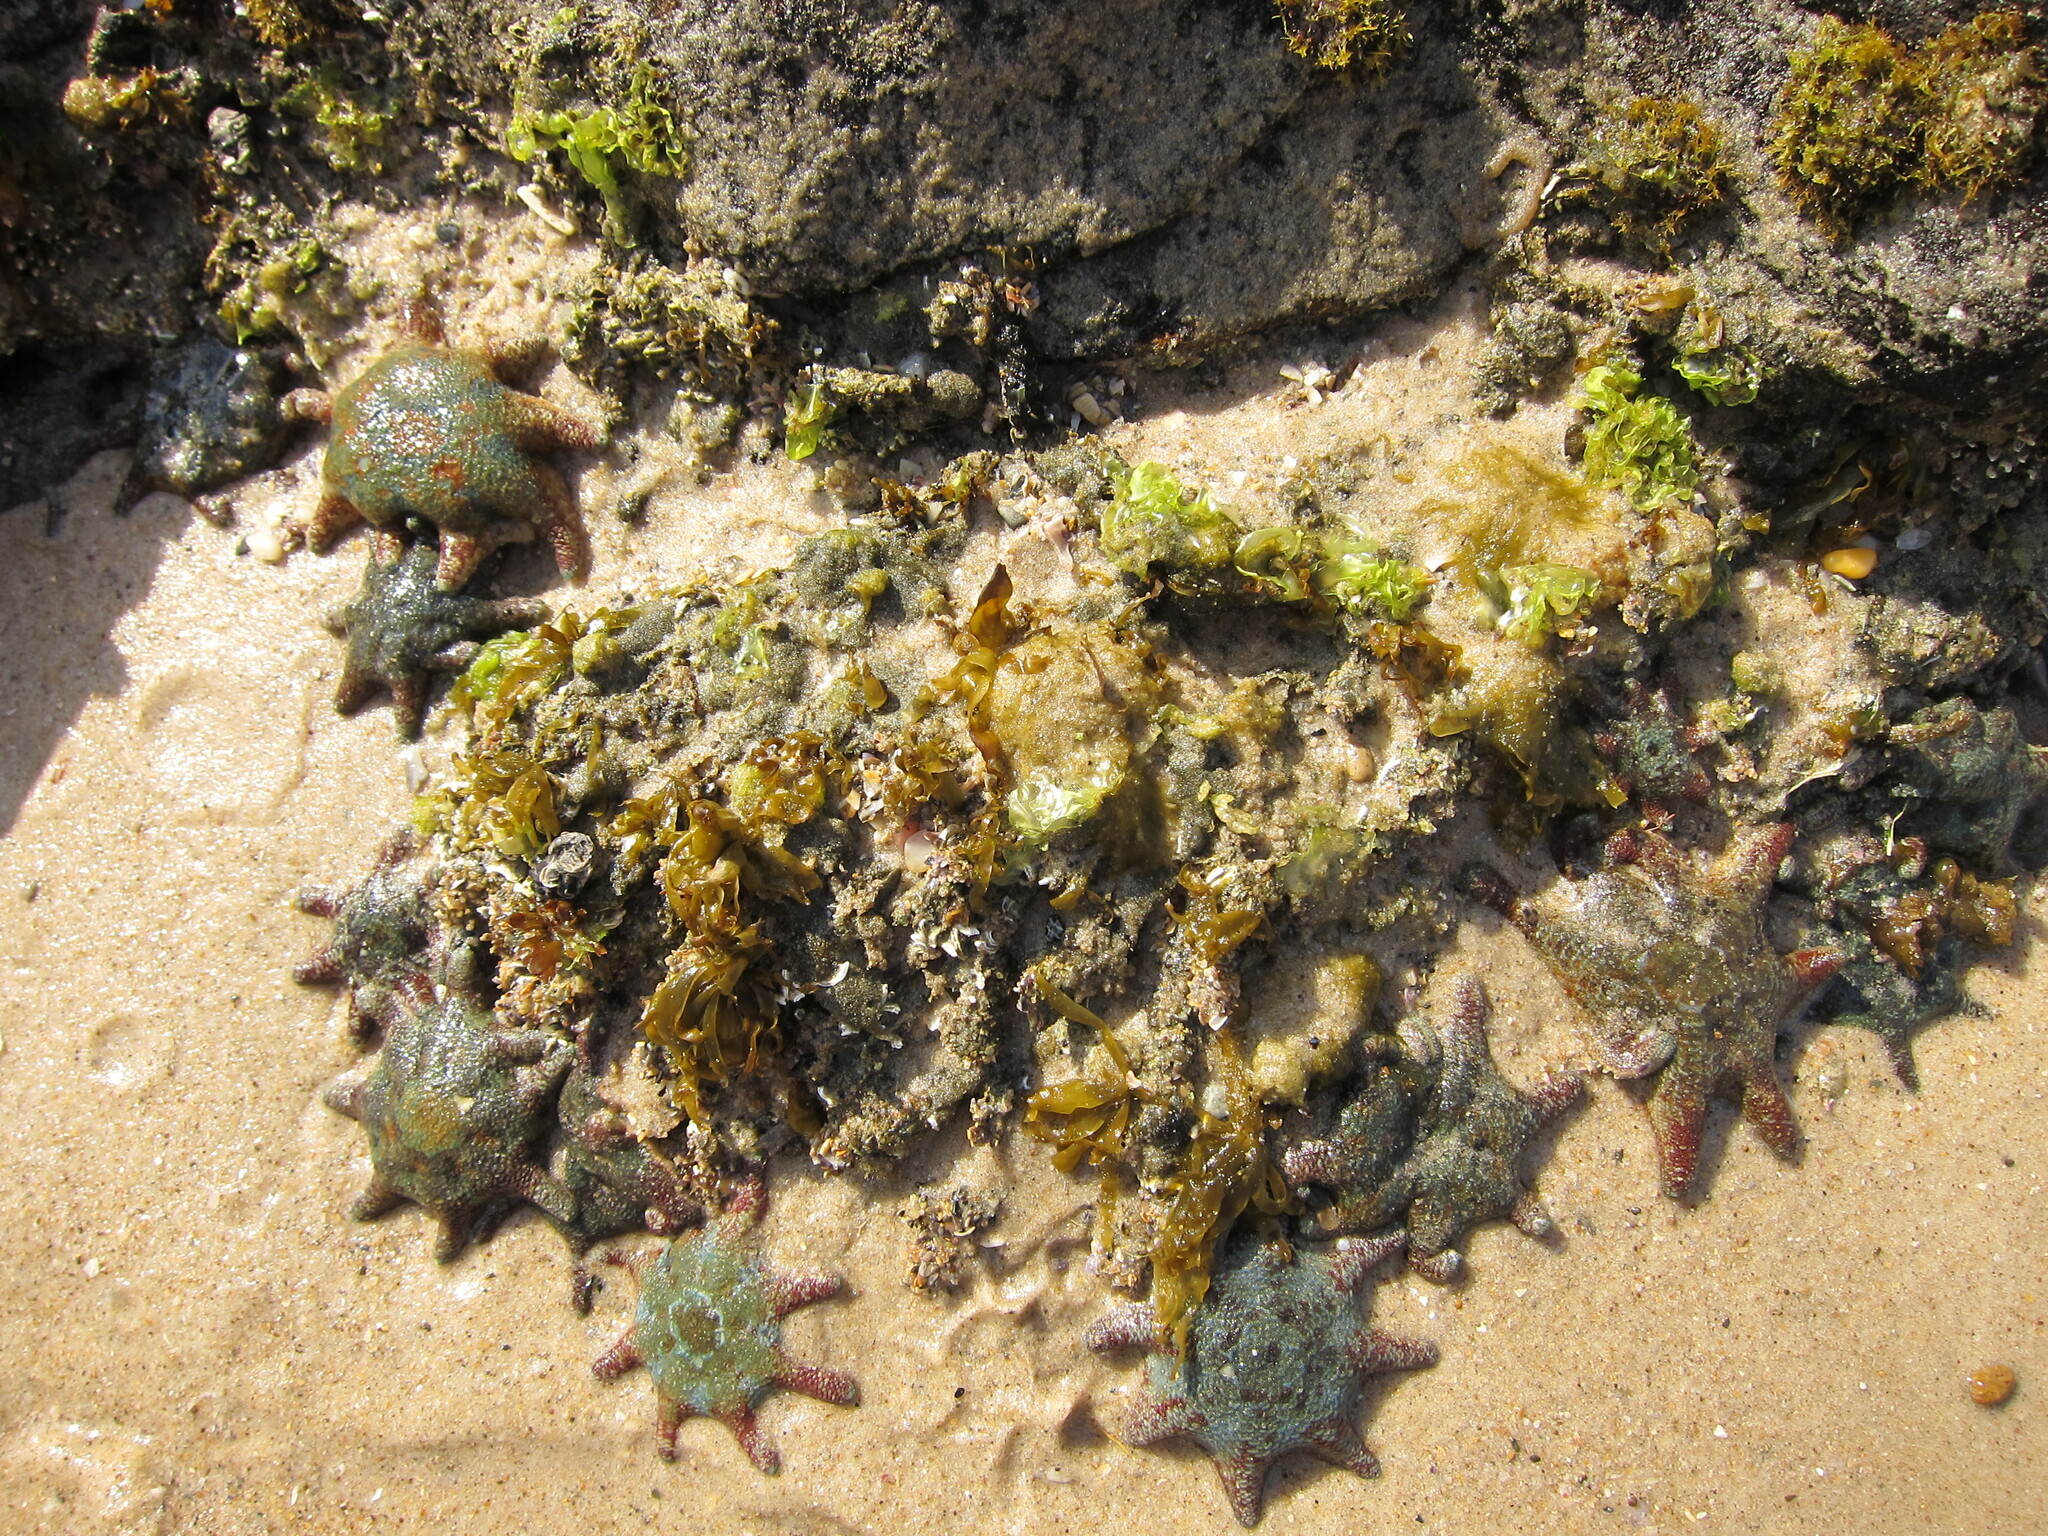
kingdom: Animalia
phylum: Echinodermata
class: Asteroidea
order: Valvatida
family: Asterinidae
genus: Meridiastra
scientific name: Meridiastra calcar
